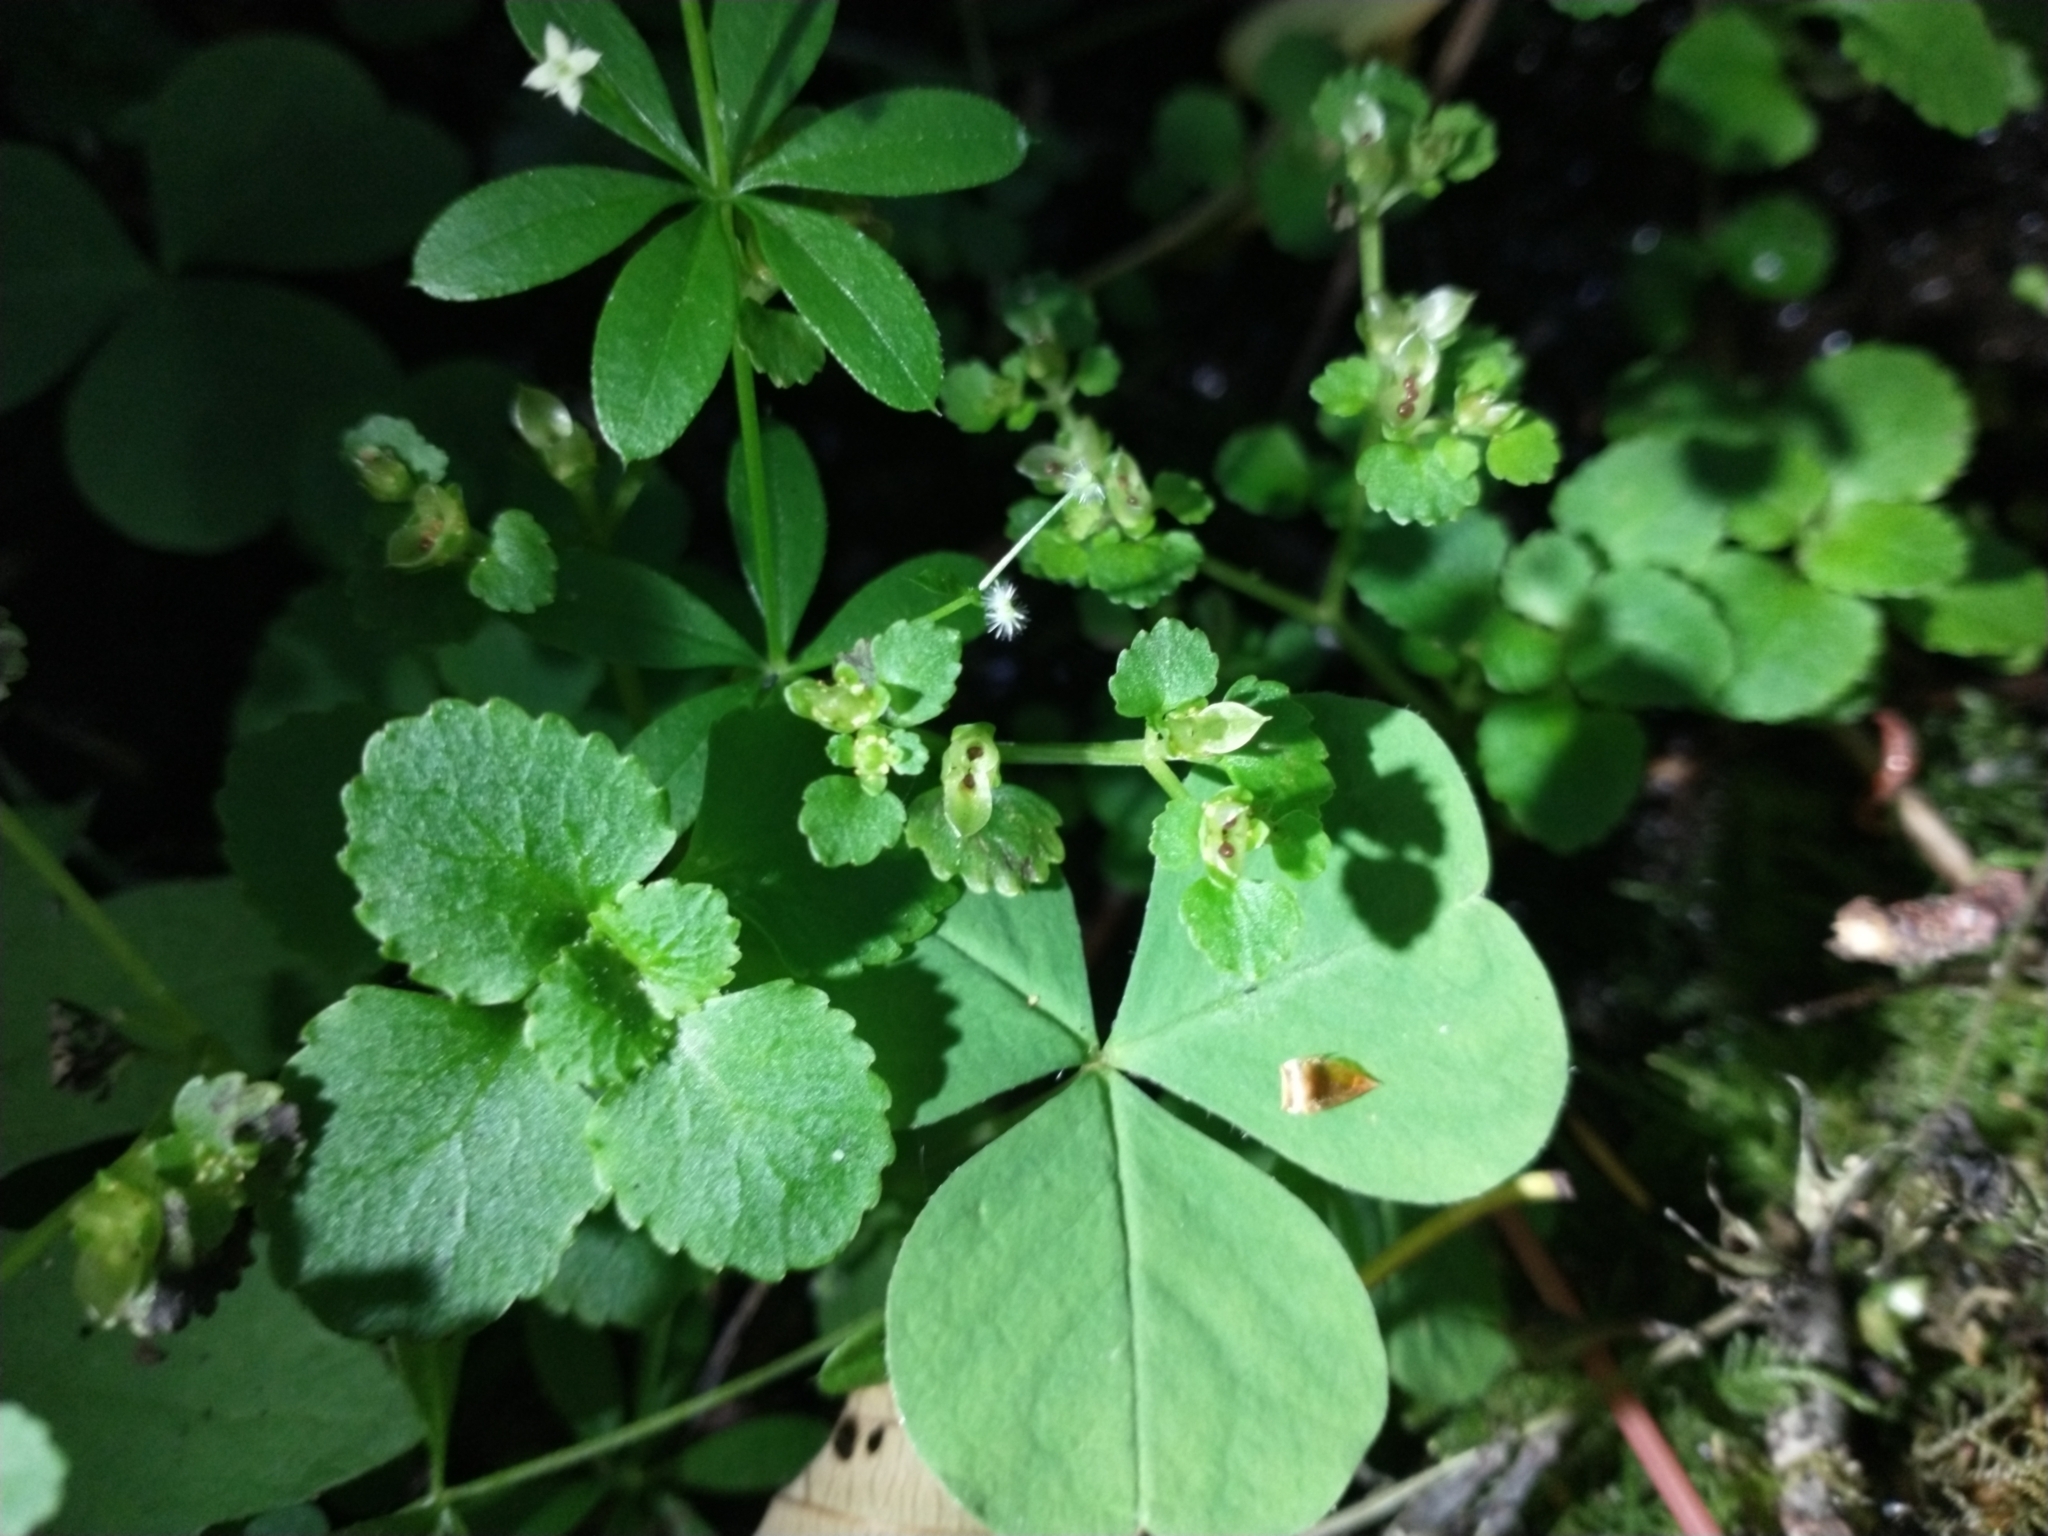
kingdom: Plantae
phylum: Tracheophyta
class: Magnoliopsida
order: Saxifragales
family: Saxifragaceae
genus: Chrysosplenium
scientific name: Chrysosplenium glechomifolium
